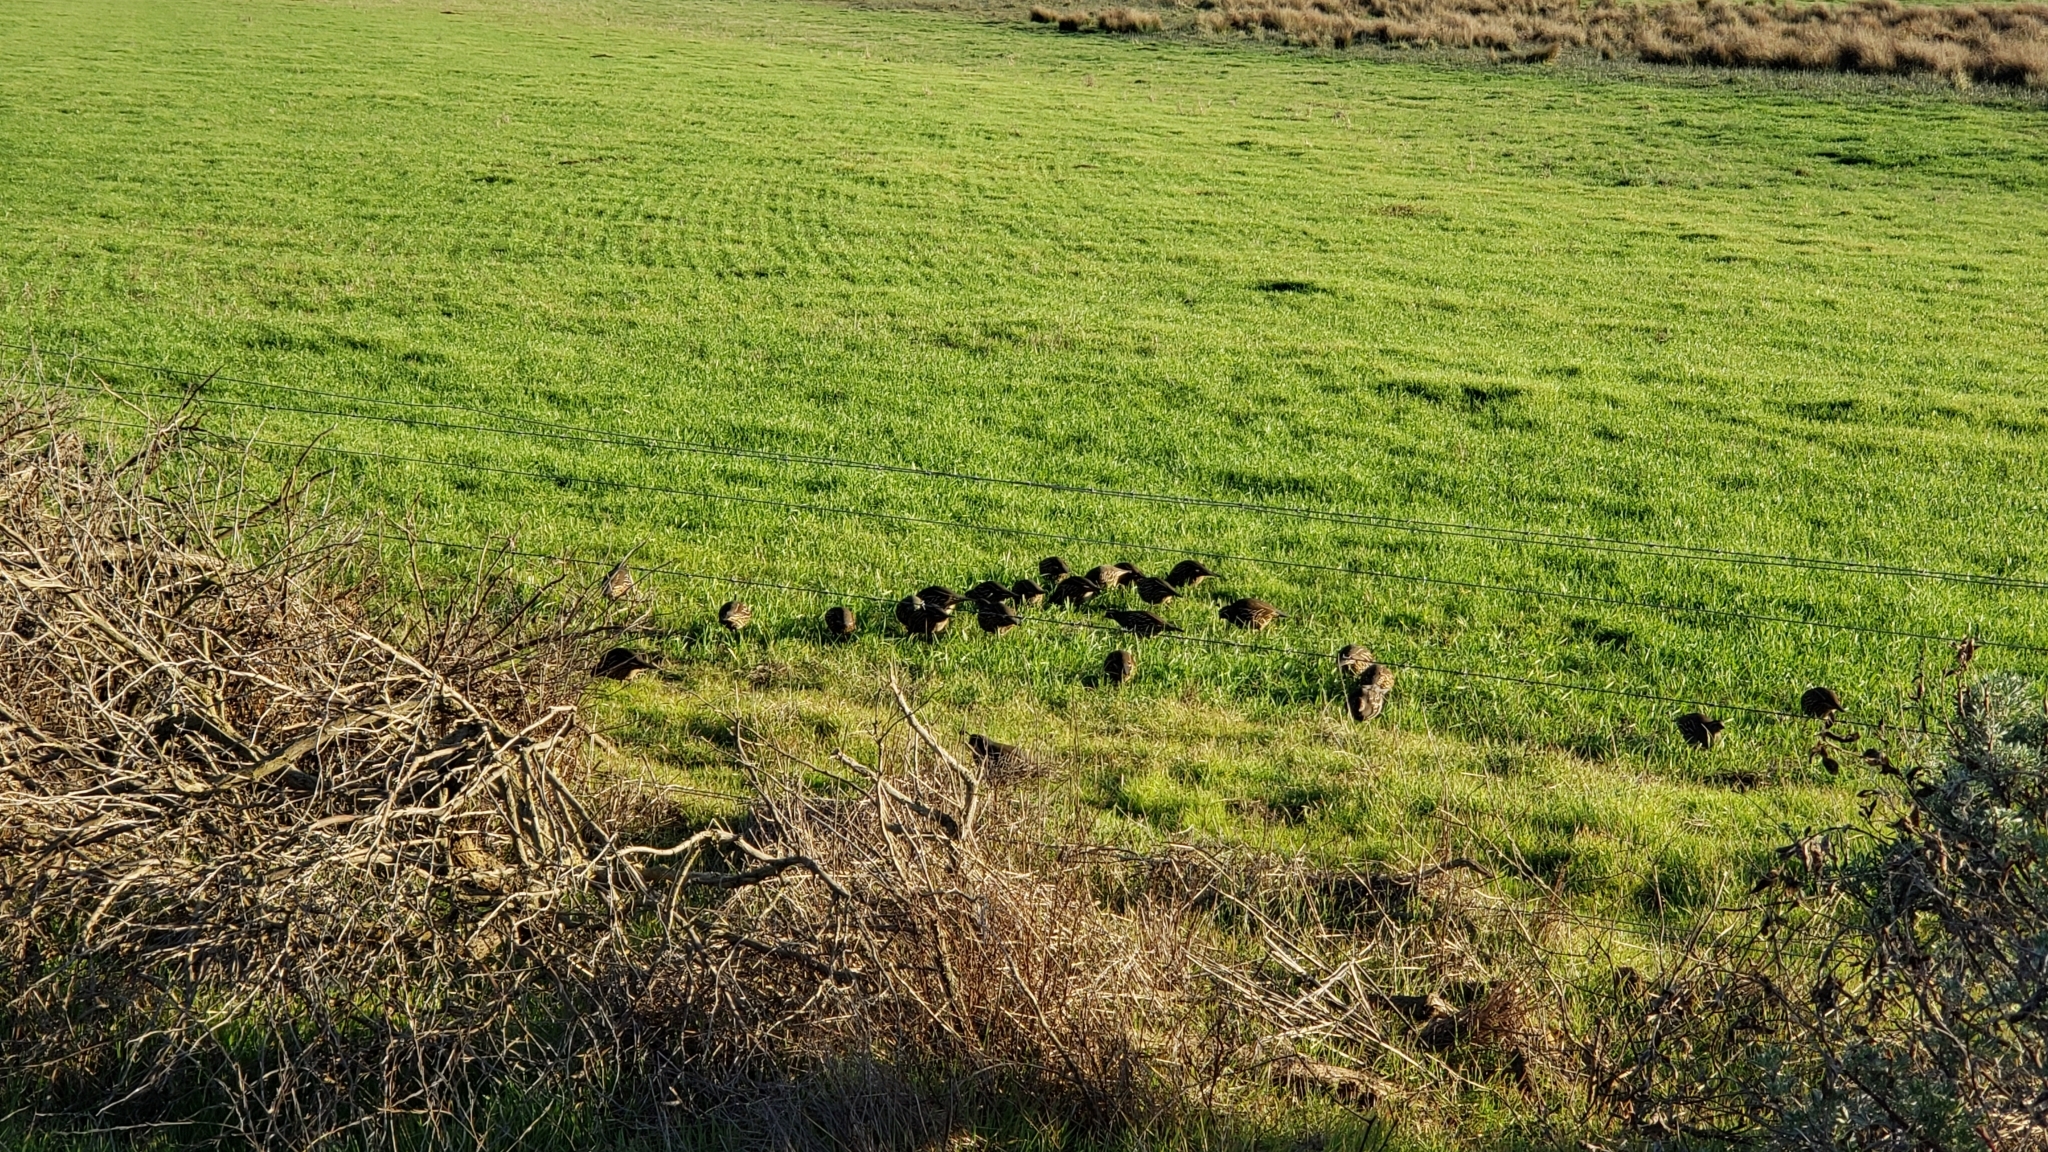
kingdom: Animalia
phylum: Chordata
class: Aves
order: Galliformes
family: Odontophoridae
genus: Callipepla
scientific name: Callipepla californica
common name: California quail
